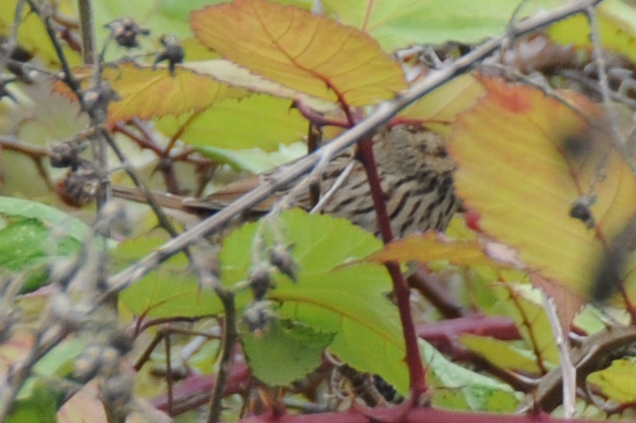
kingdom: Animalia
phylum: Chordata
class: Aves
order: Passeriformes
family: Passerellidae
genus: Melospiza
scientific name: Melospiza lincolnii
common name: Lincoln's sparrow
